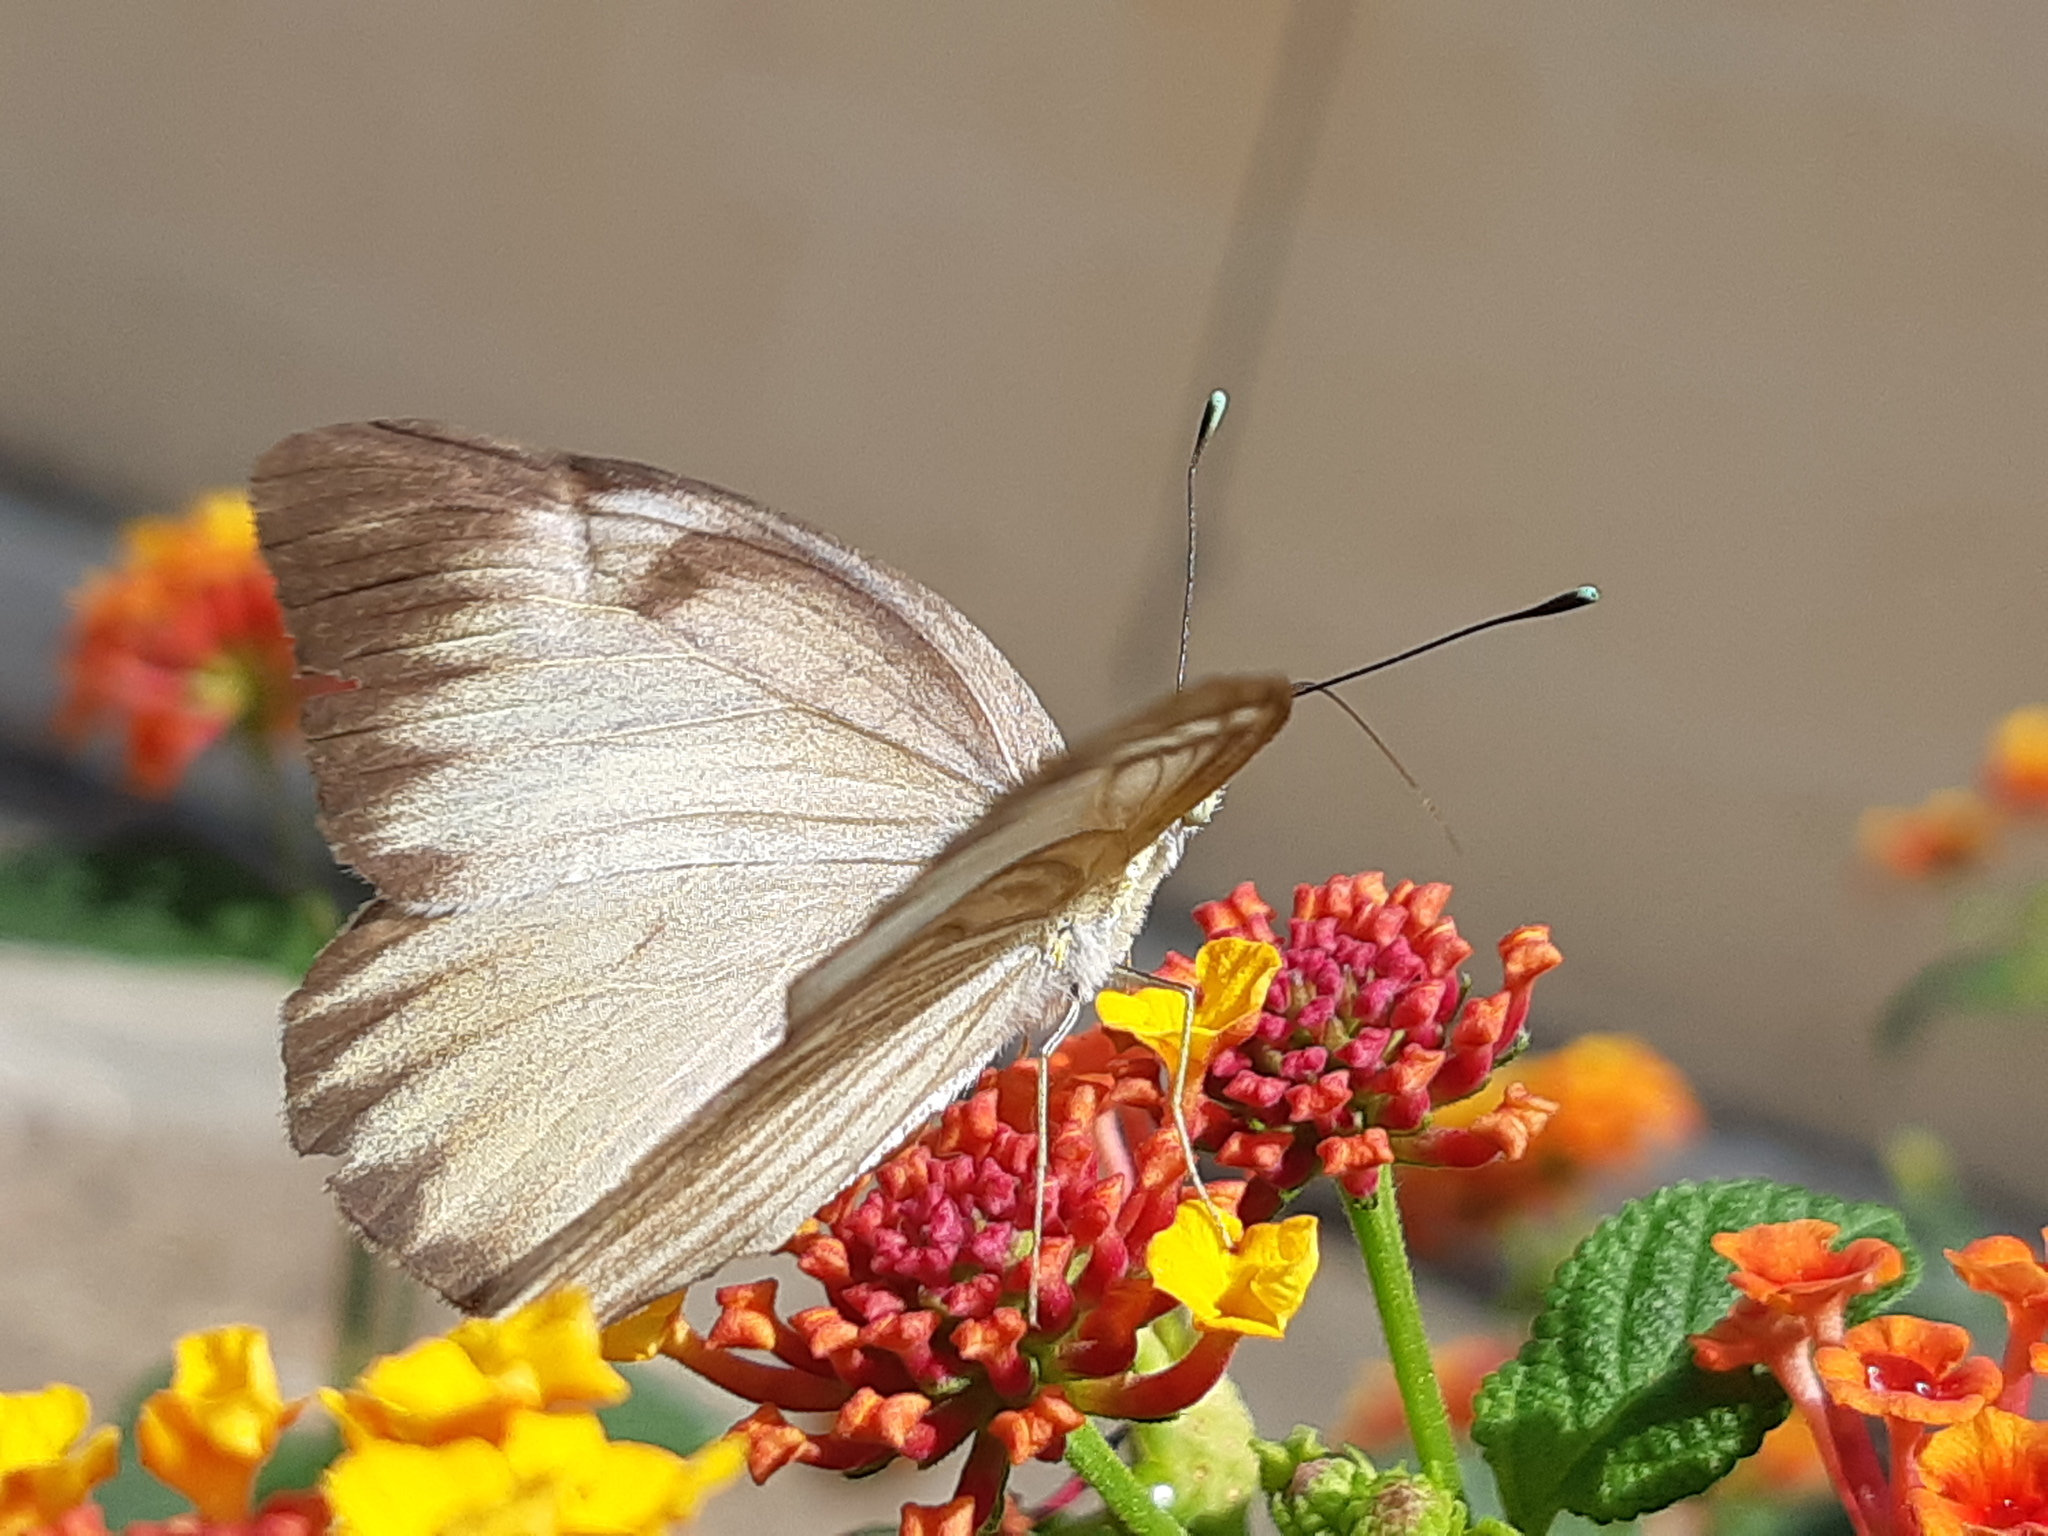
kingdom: Animalia
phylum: Arthropoda
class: Insecta
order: Lepidoptera
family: Pieridae
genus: Ascia
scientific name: Ascia monuste
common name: Great southern white
